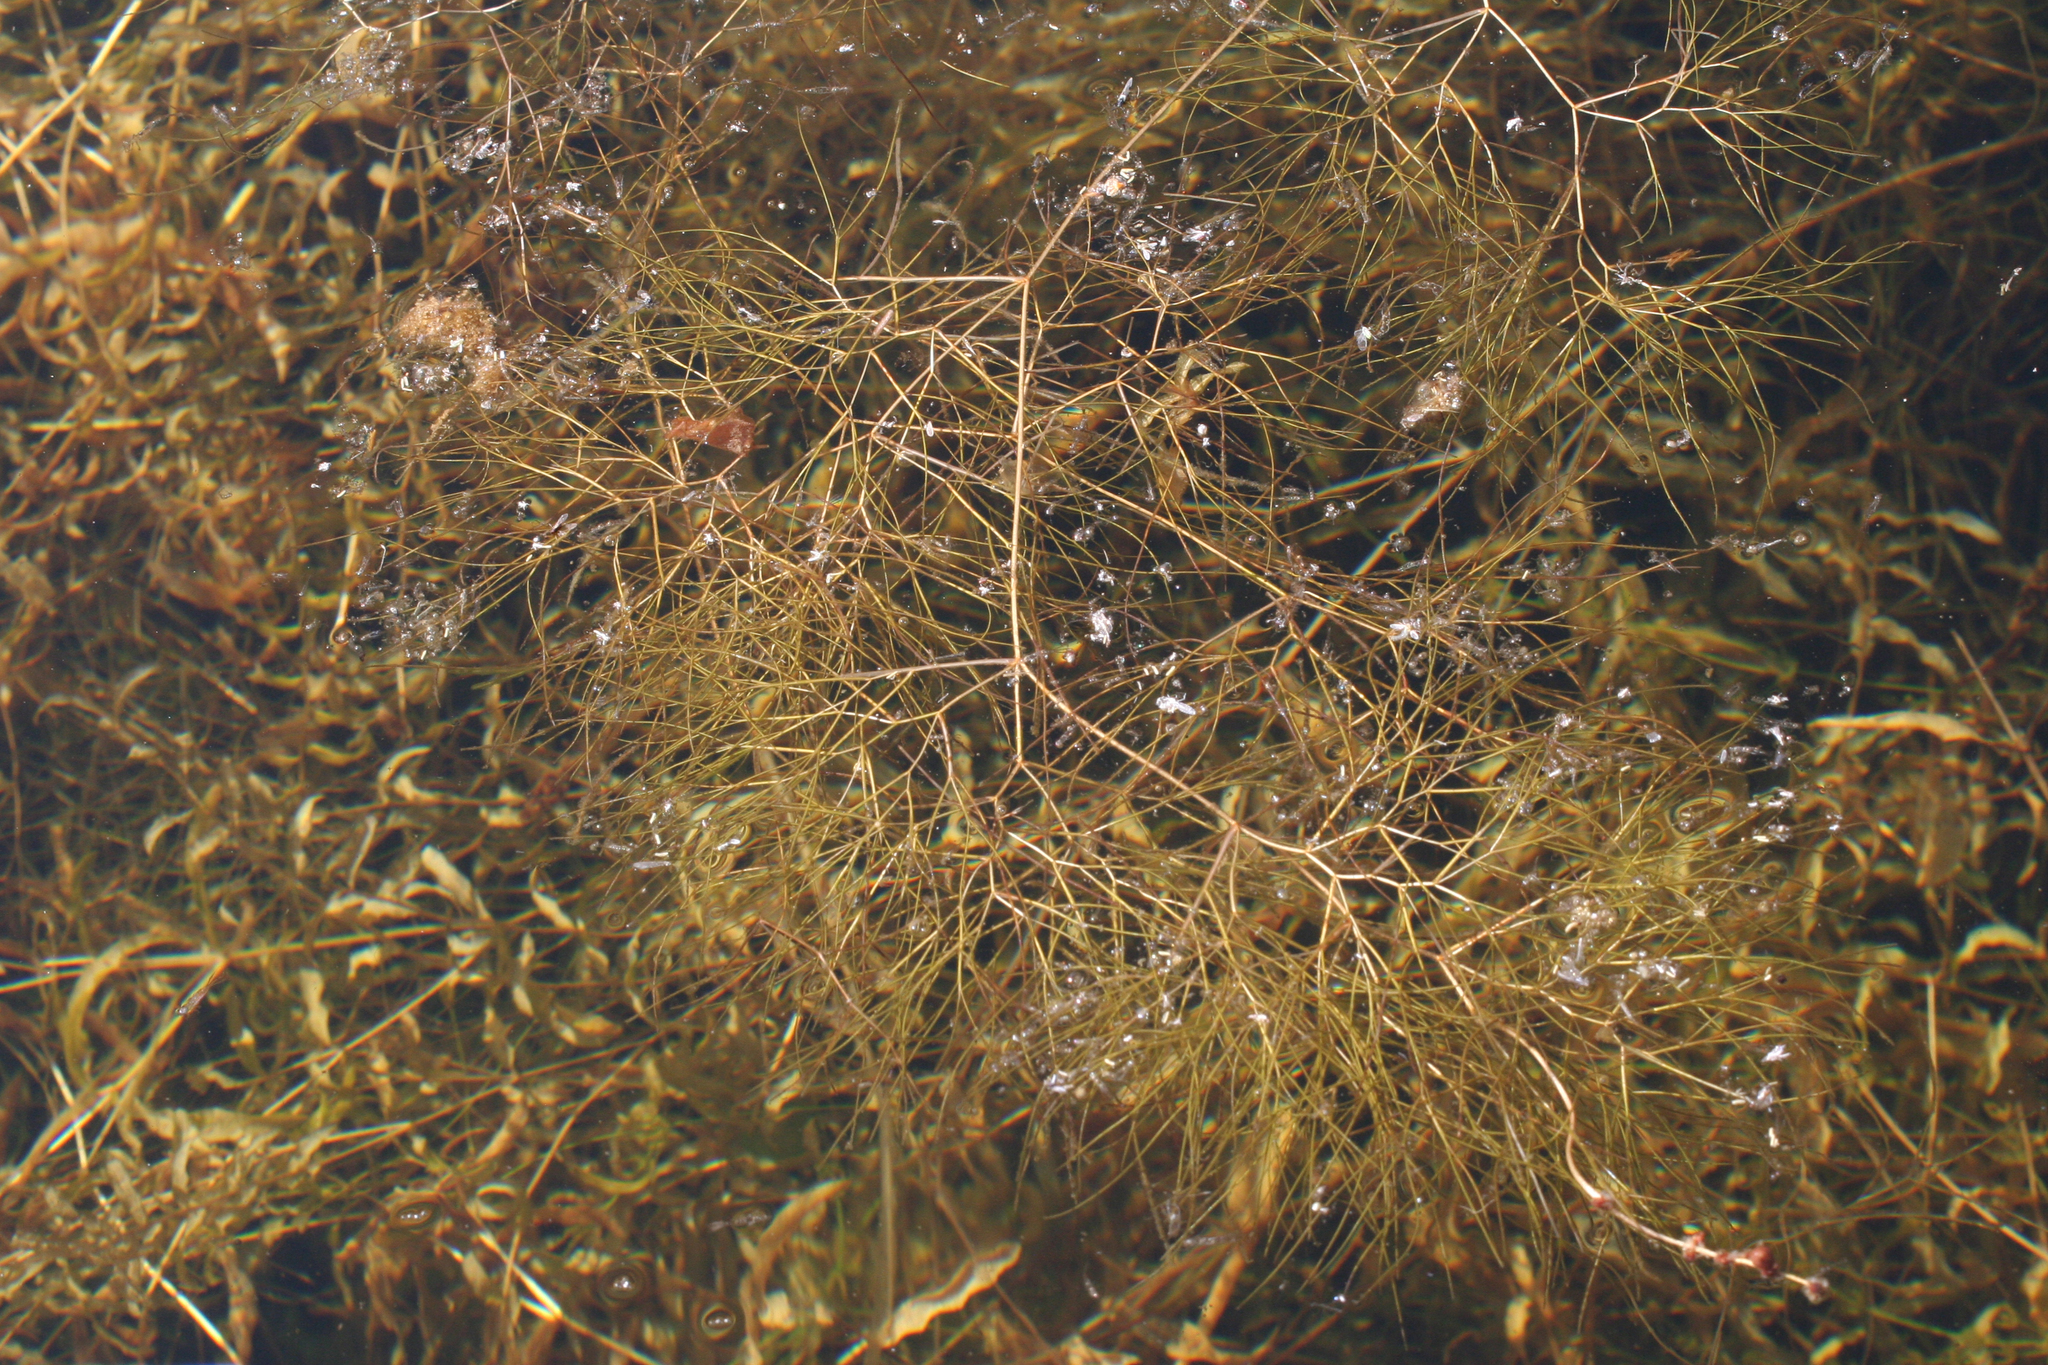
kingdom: Plantae
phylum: Tracheophyta
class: Liliopsida
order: Alismatales
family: Potamogetonaceae
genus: Stuckenia
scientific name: Stuckenia pectinata
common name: Sago pondweed
